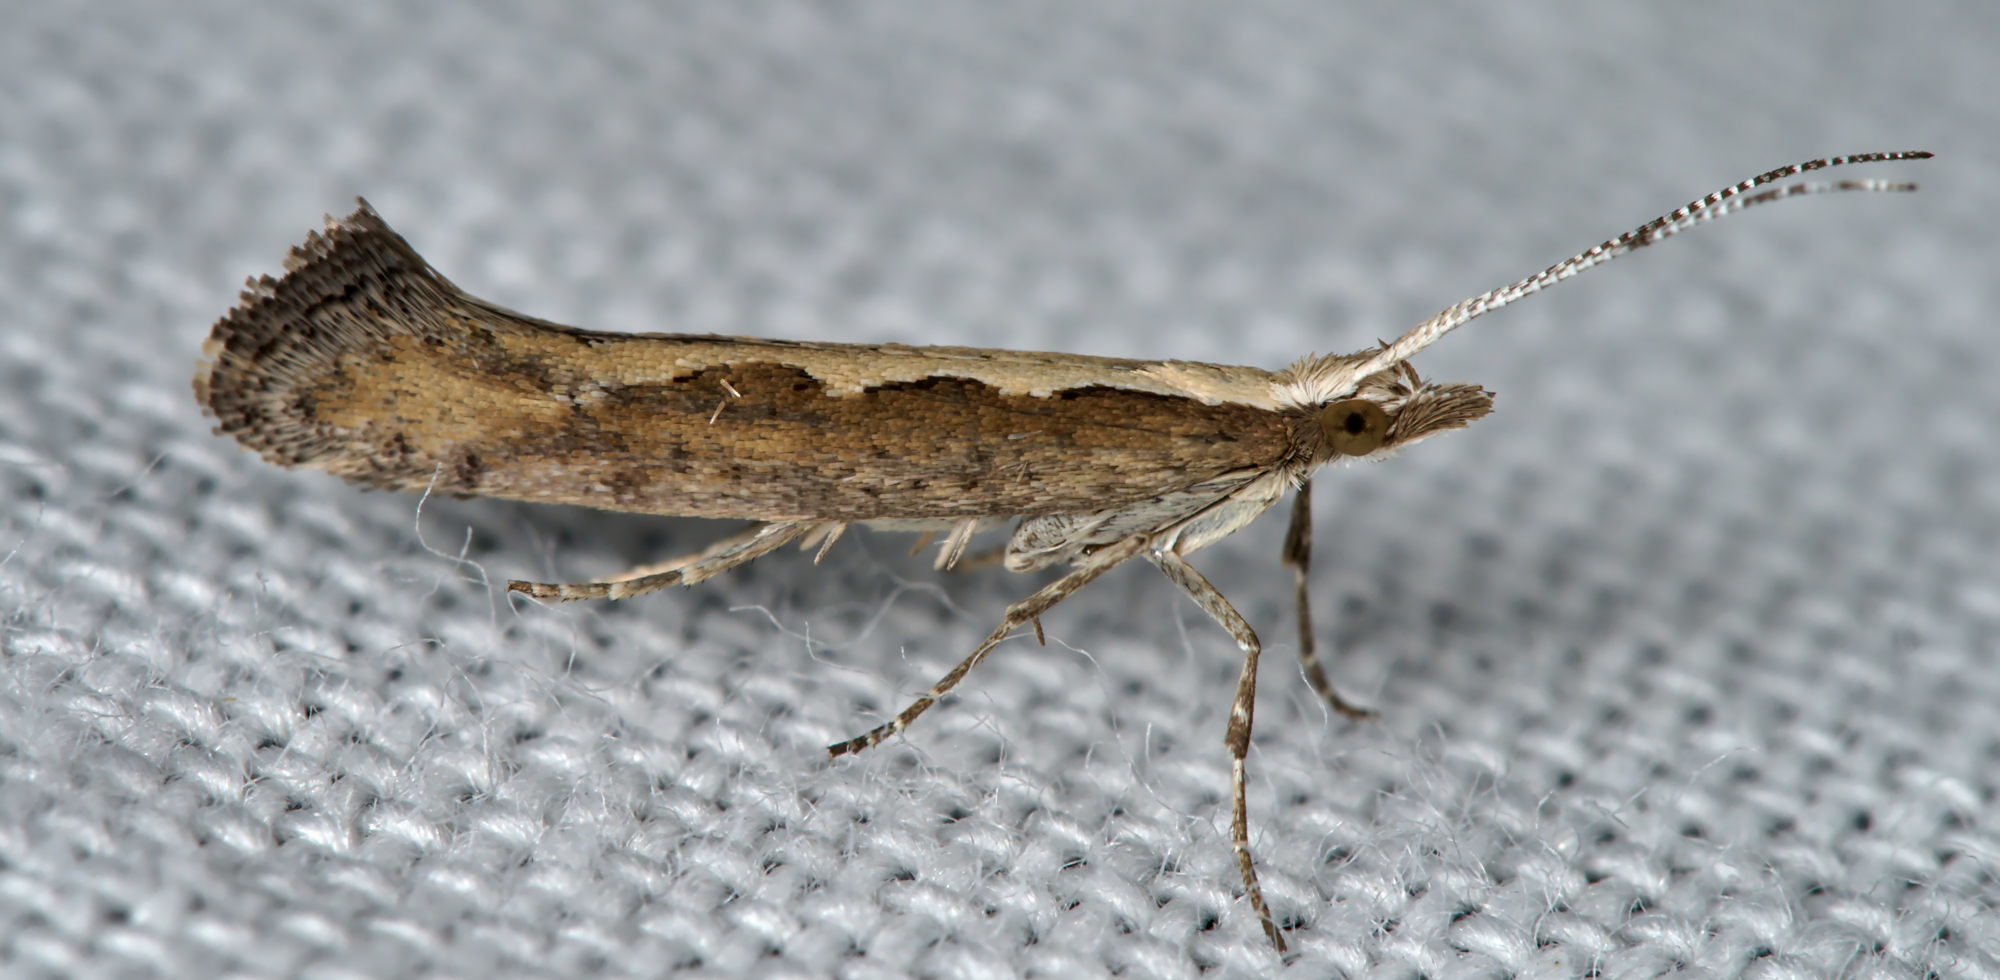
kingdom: Animalia
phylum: Arthropoda
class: Insecta
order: Lepidoptera
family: Plutellidae
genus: Plutella
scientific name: Plutella xylostella
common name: Diamond-back moth
